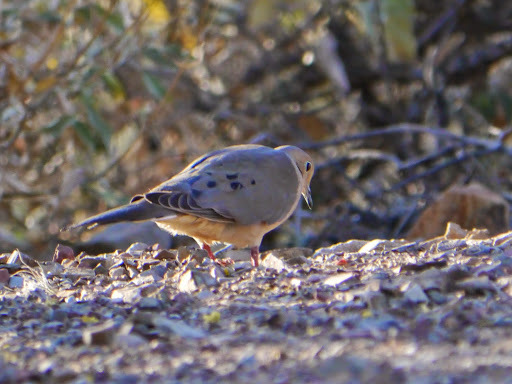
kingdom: Animalia
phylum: Chordata
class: Aves
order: Columbiformes
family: Columbidae
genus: Zenaida
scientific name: Zenaida macroura
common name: Mourning dove
